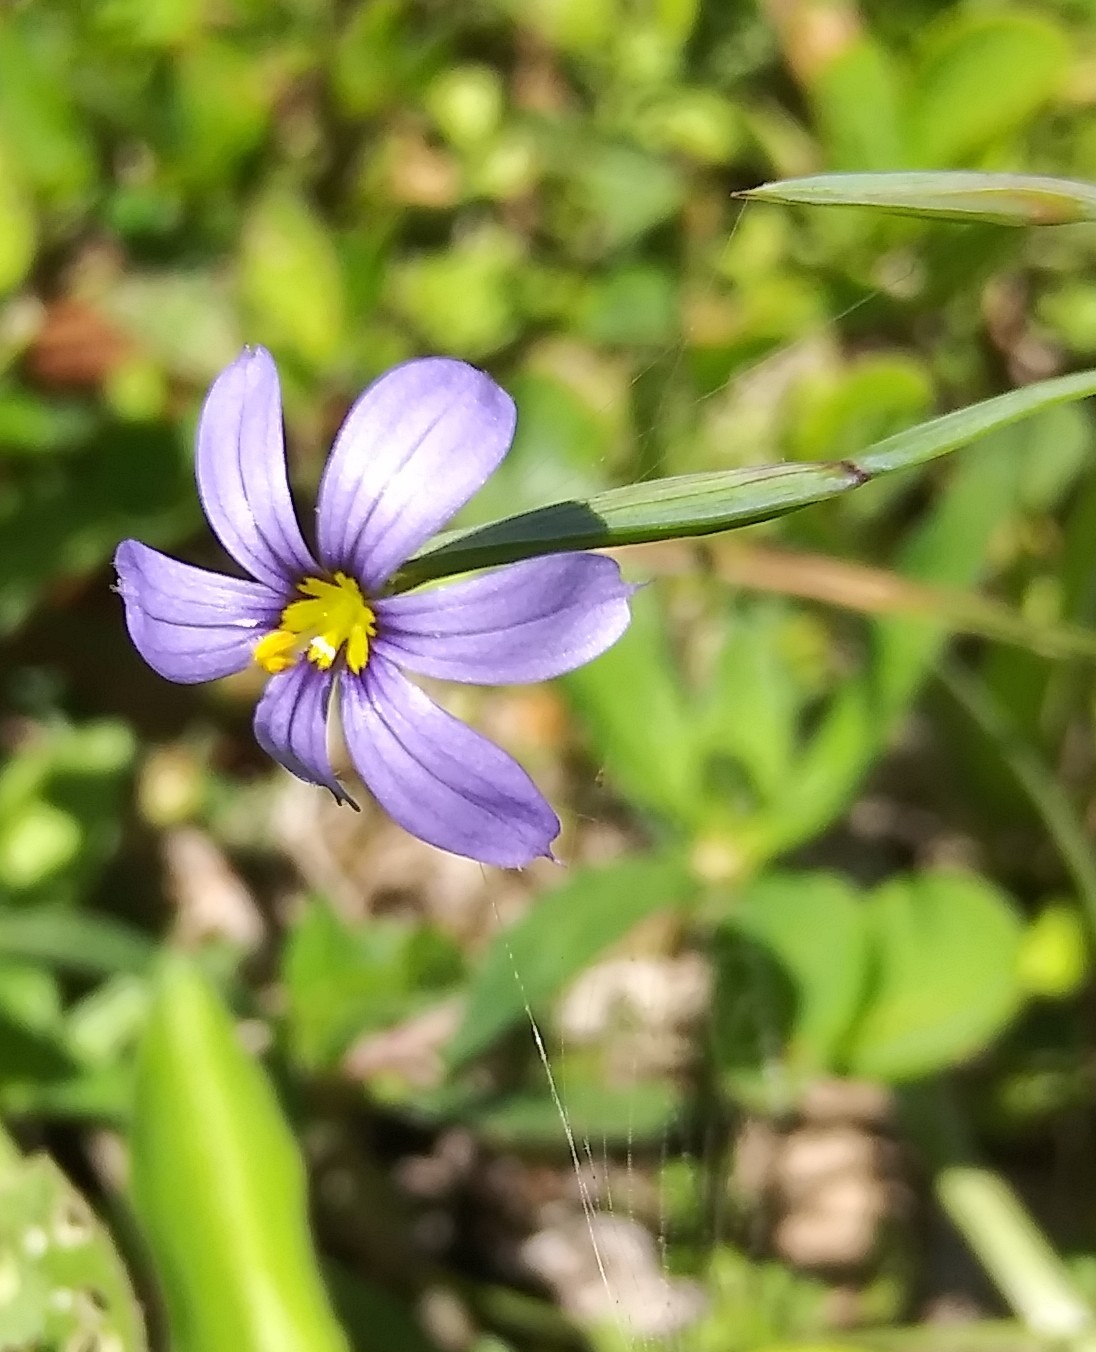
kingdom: Plantae
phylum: Tracheophyta
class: Liliopsida
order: Asparagales
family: Iridaceae
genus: Sisyrinchium
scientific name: Sisyrinchium angustifolium
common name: Narrow-leaf blue-eyed-grass
